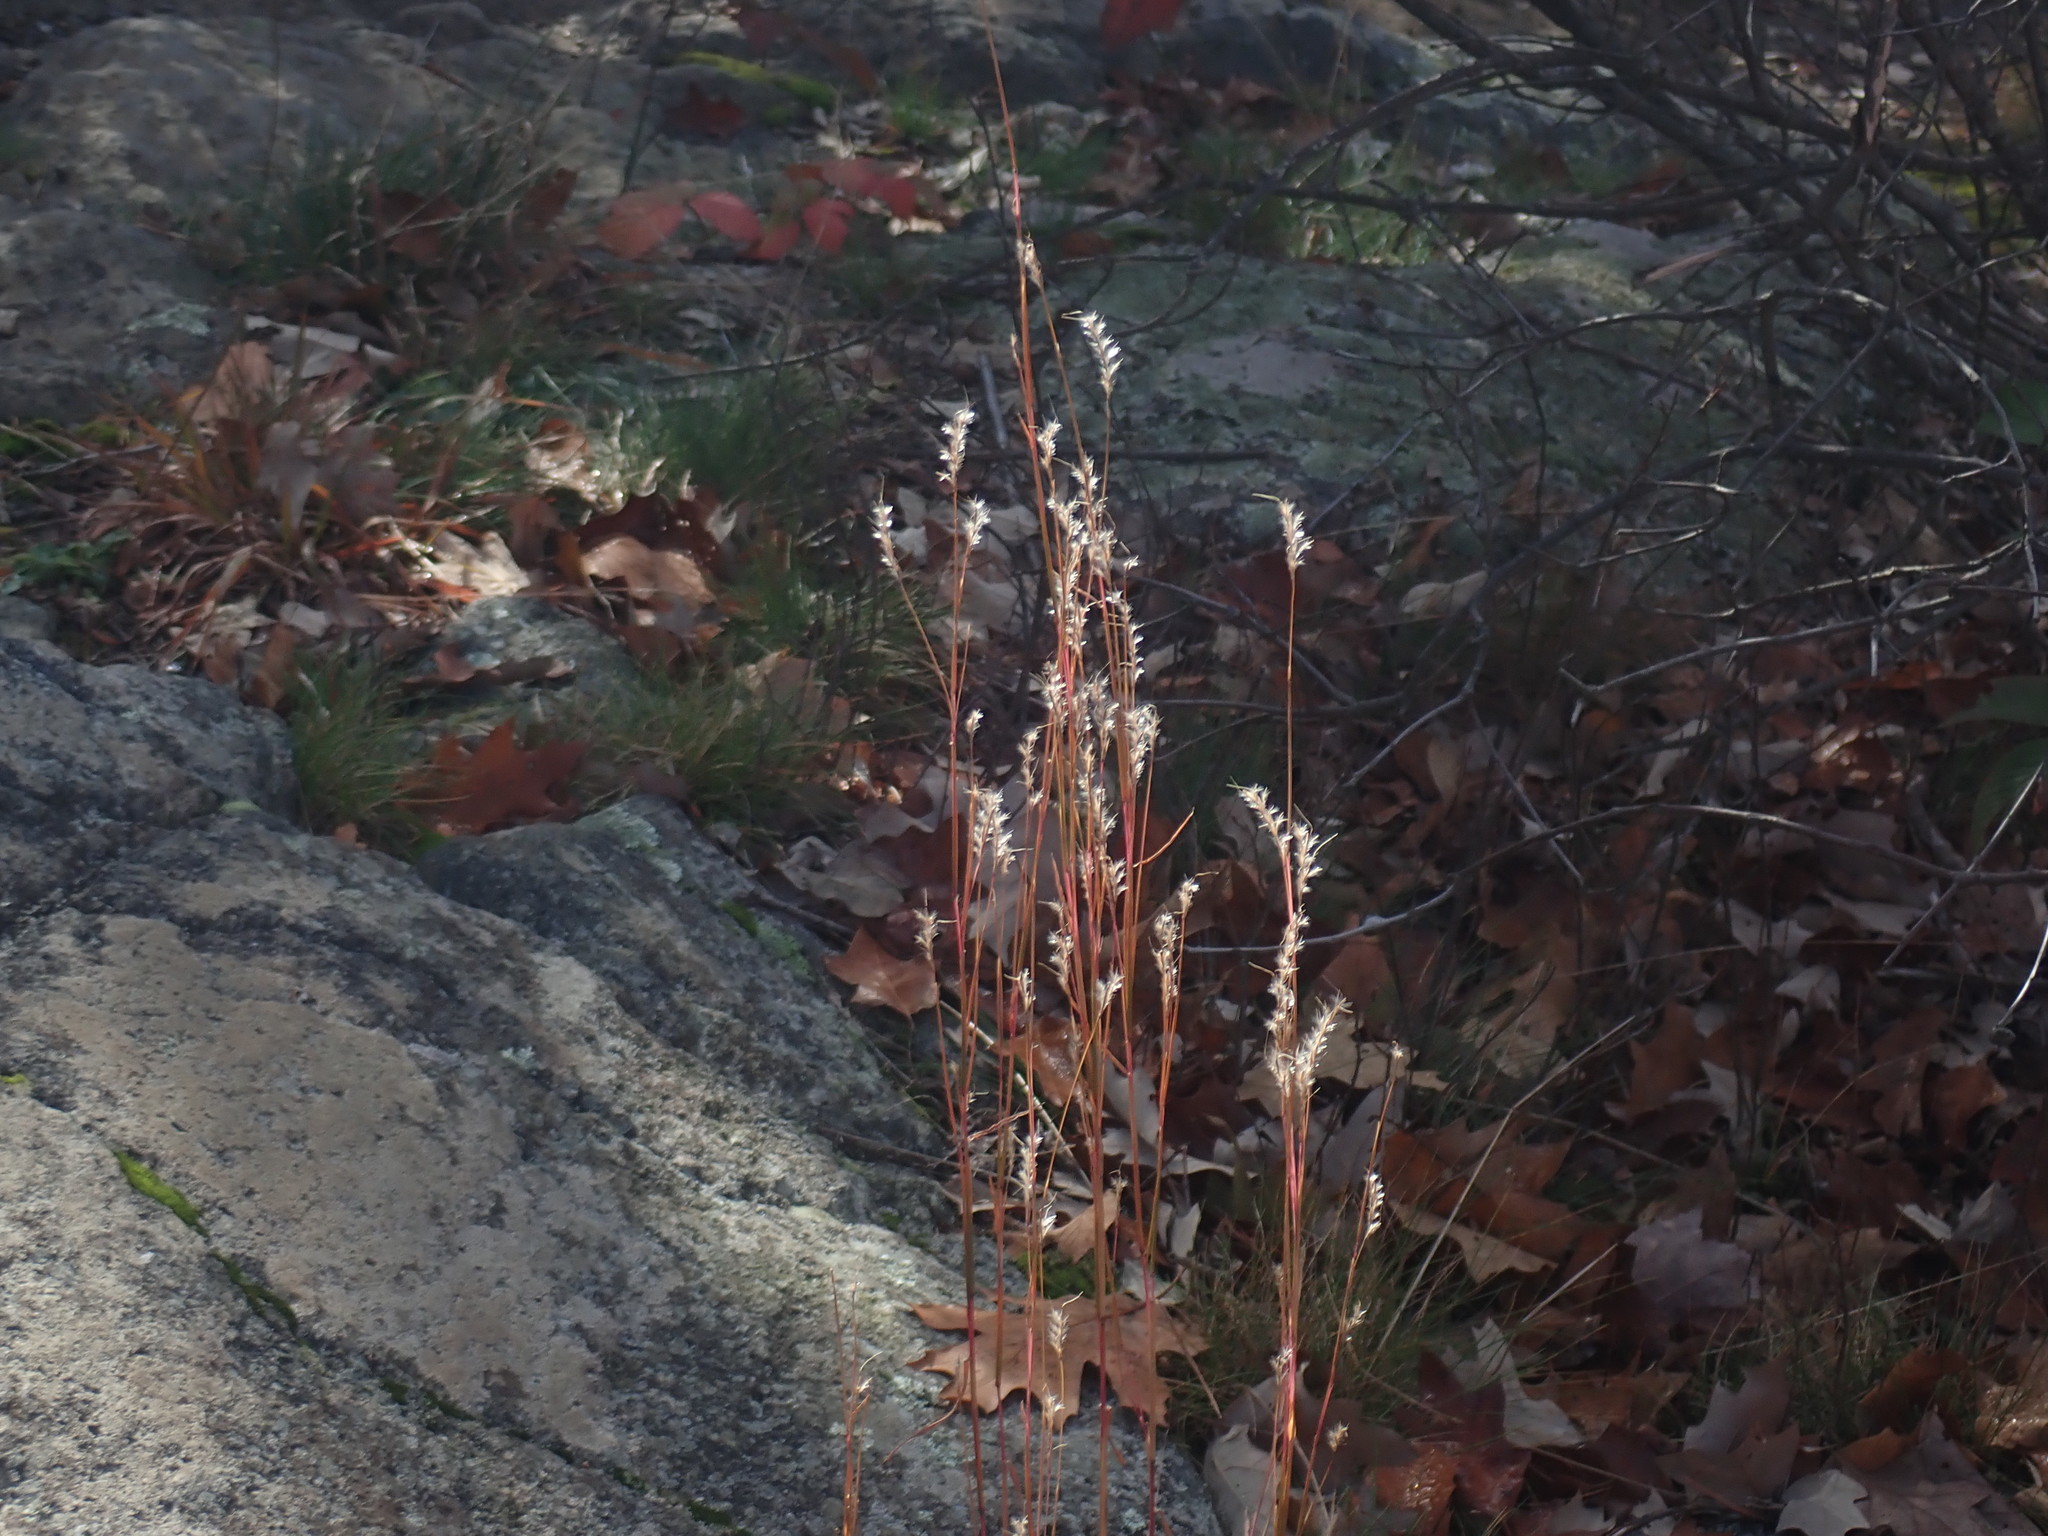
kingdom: Plantae
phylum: Tracheophyta
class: Liliopsida
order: Poales
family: Poaceae
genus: Schizachyrium
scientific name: Schizachyrium scoparium
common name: Little bluestem
